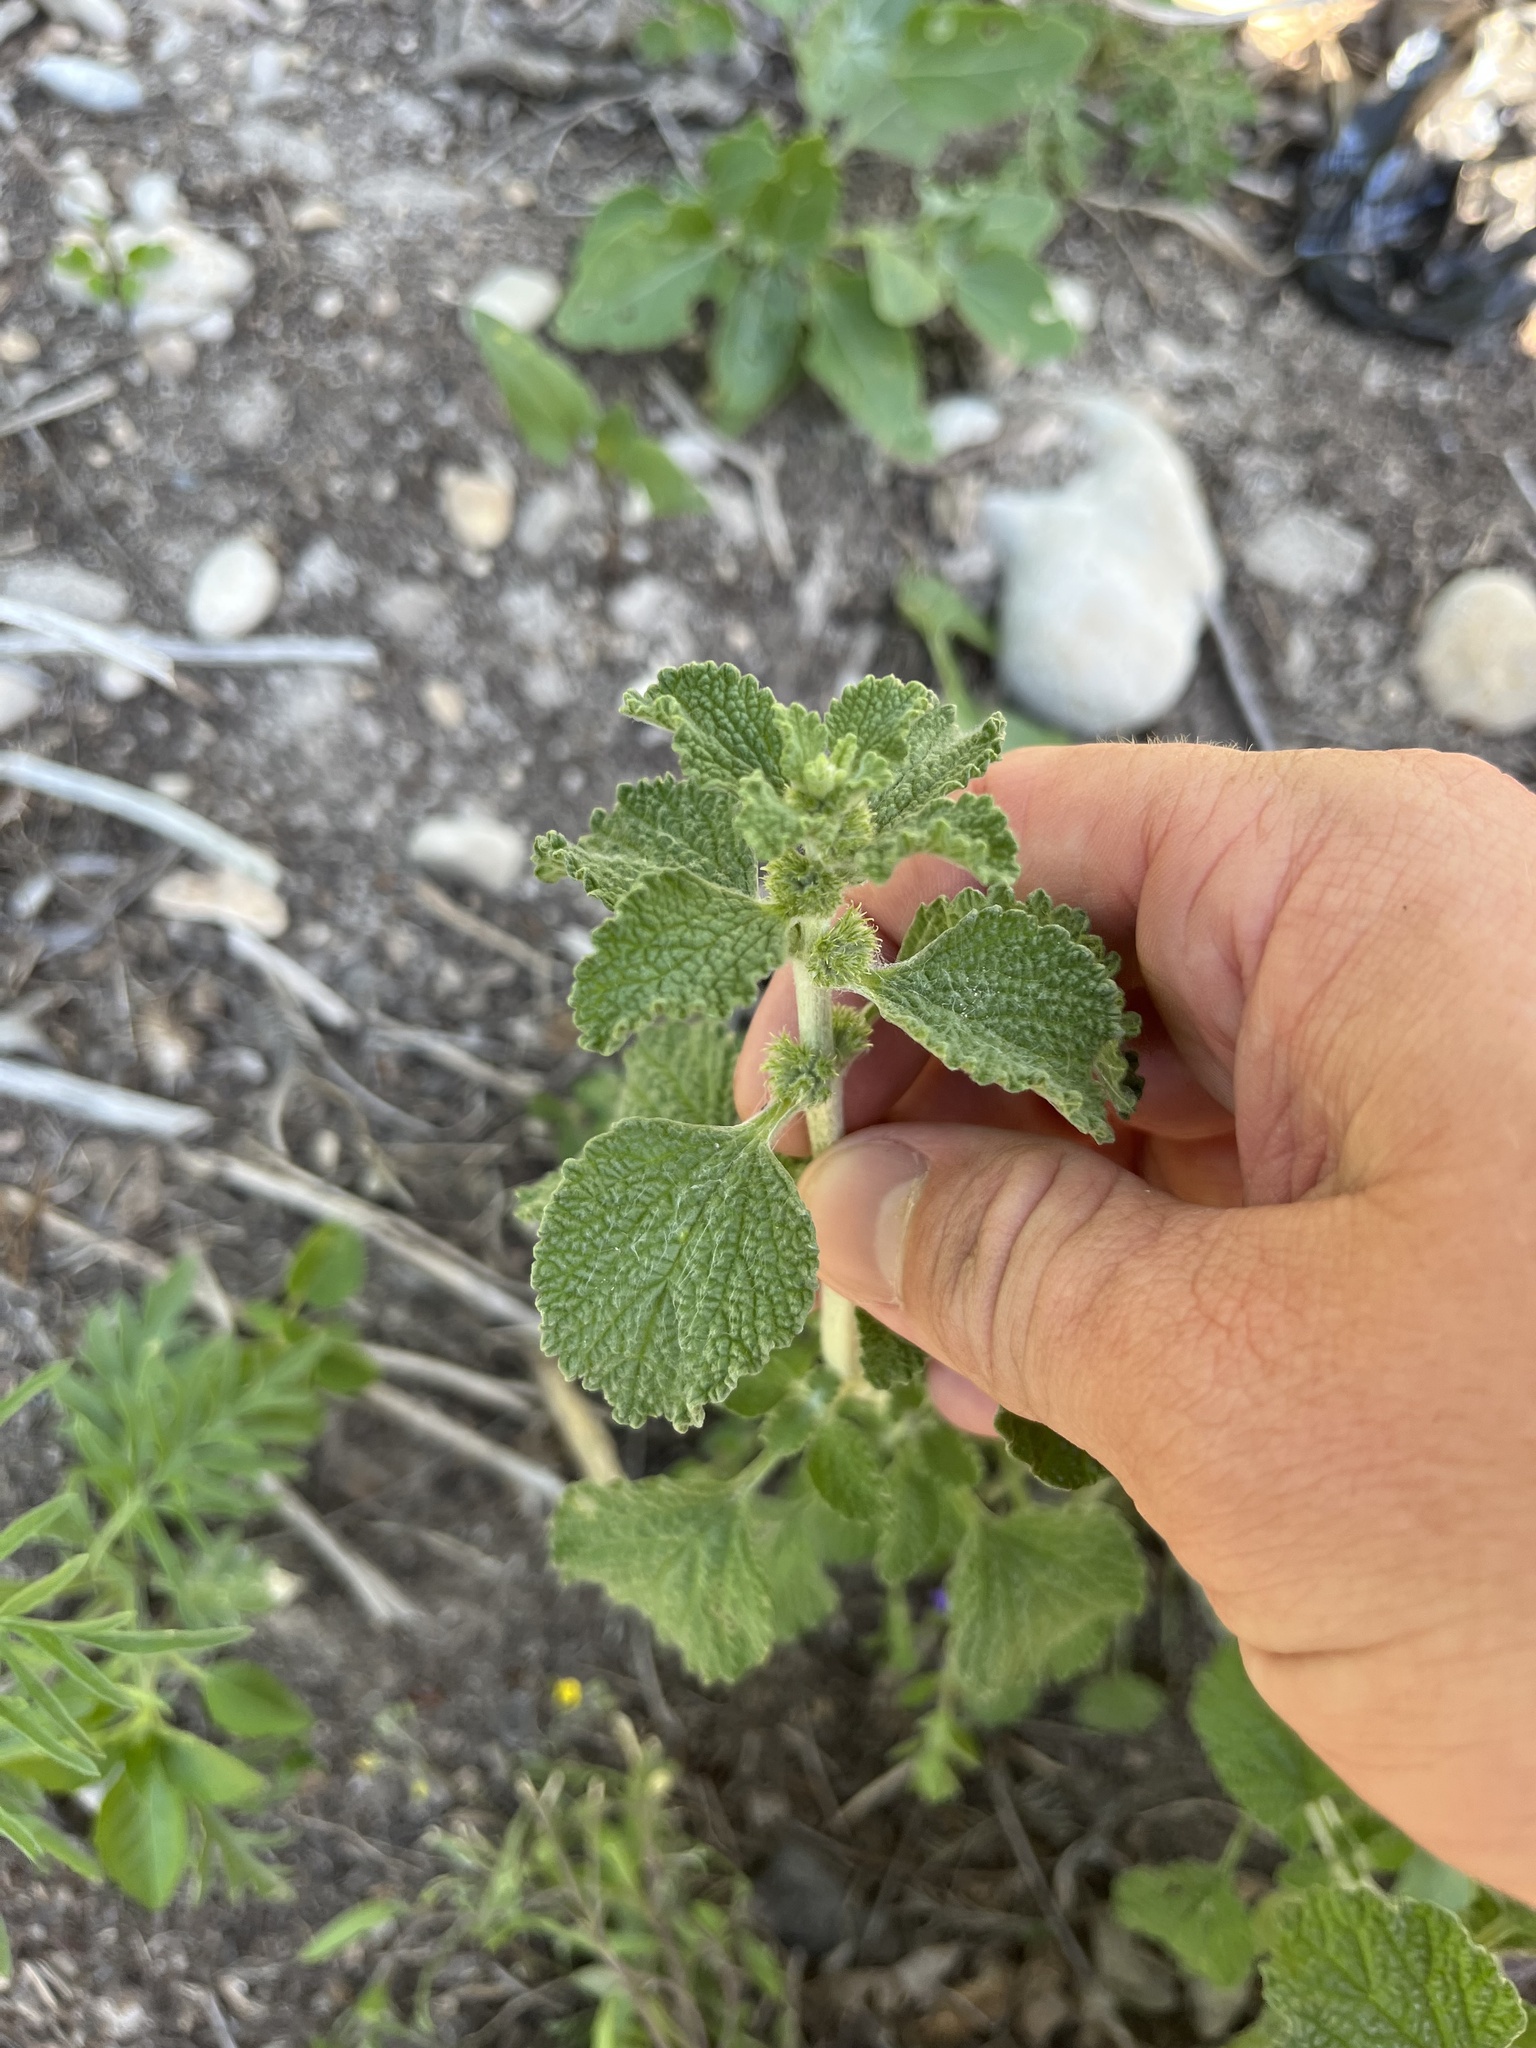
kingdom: Plantae
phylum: Tracheophyta
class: Magnoliopsida
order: Lamiales
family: Lamiaceae
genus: Marrubium
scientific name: Marrubium vulgare
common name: Horehound
